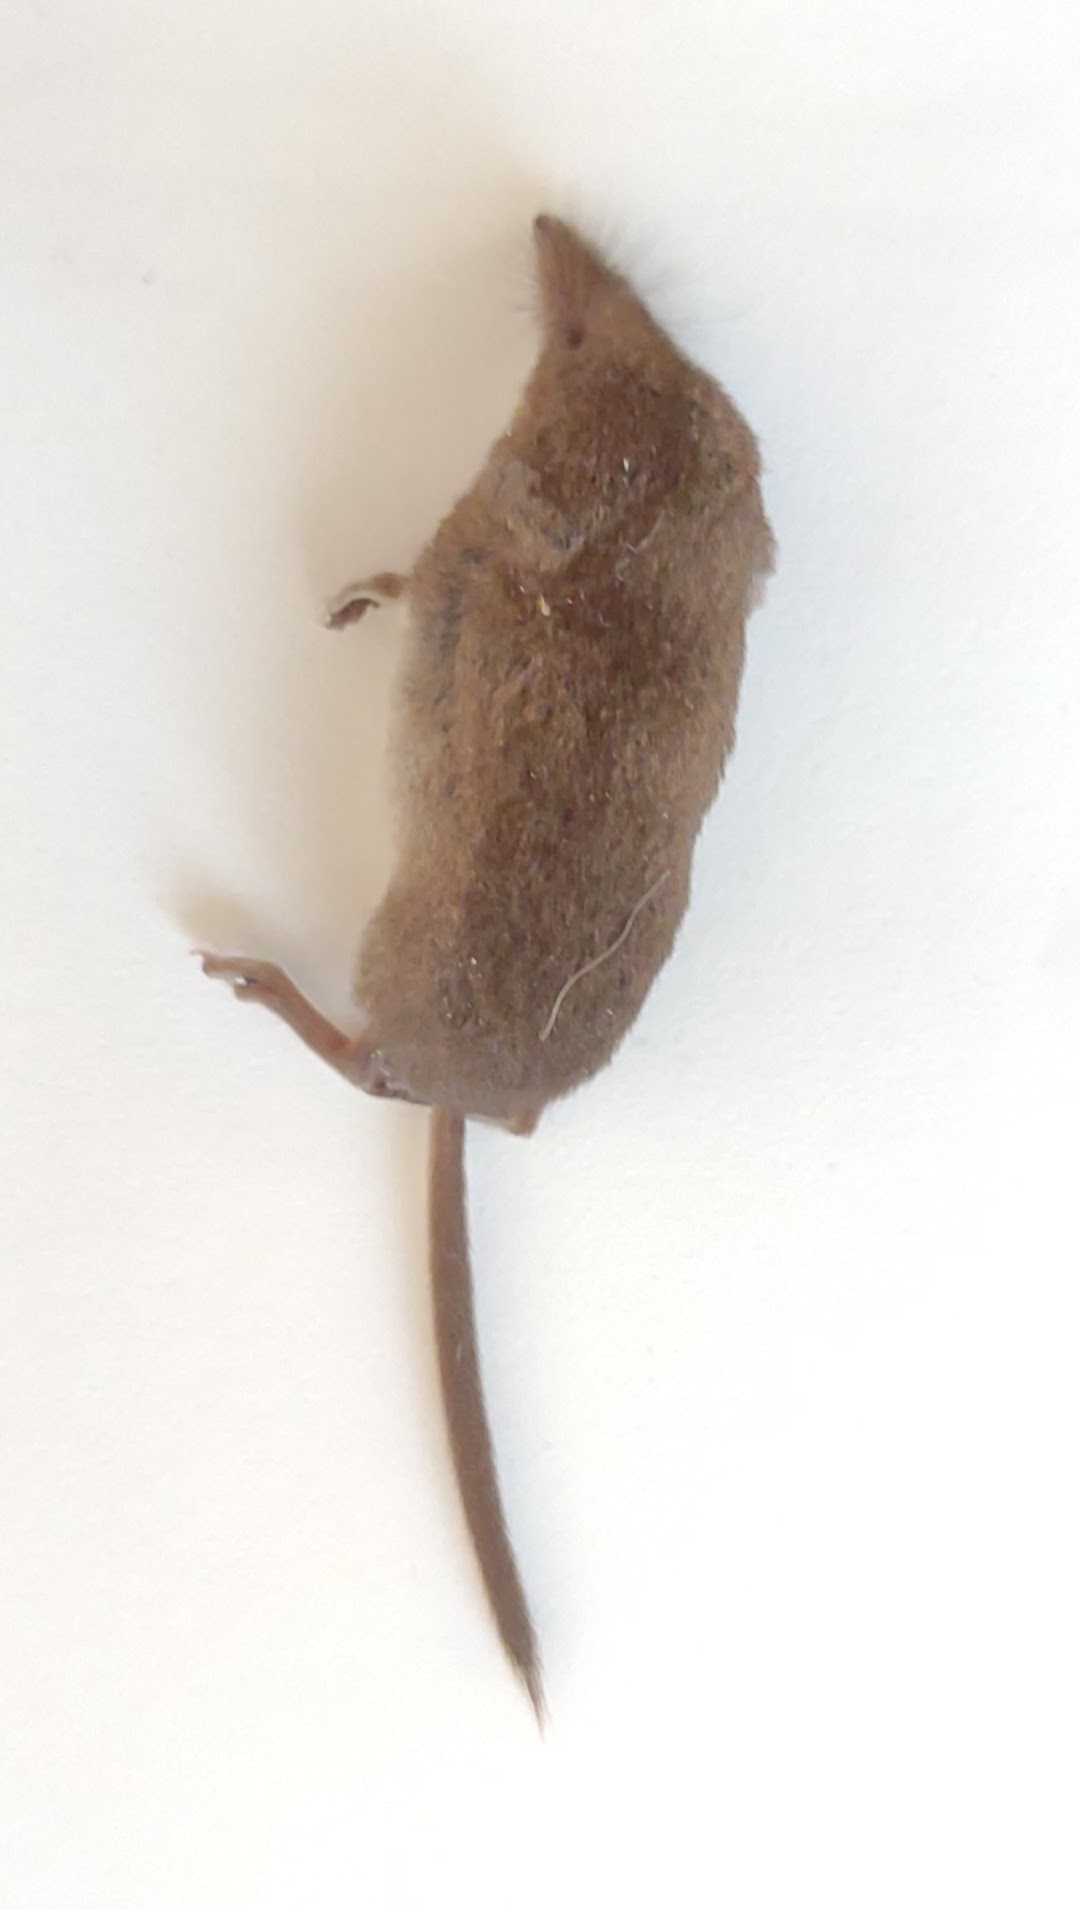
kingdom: Animalia
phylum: Chordata
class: Mammalia
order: Soricomorpha
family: Soricidae
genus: Sorex
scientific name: Sorex cinereus
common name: Cinereus shrew
